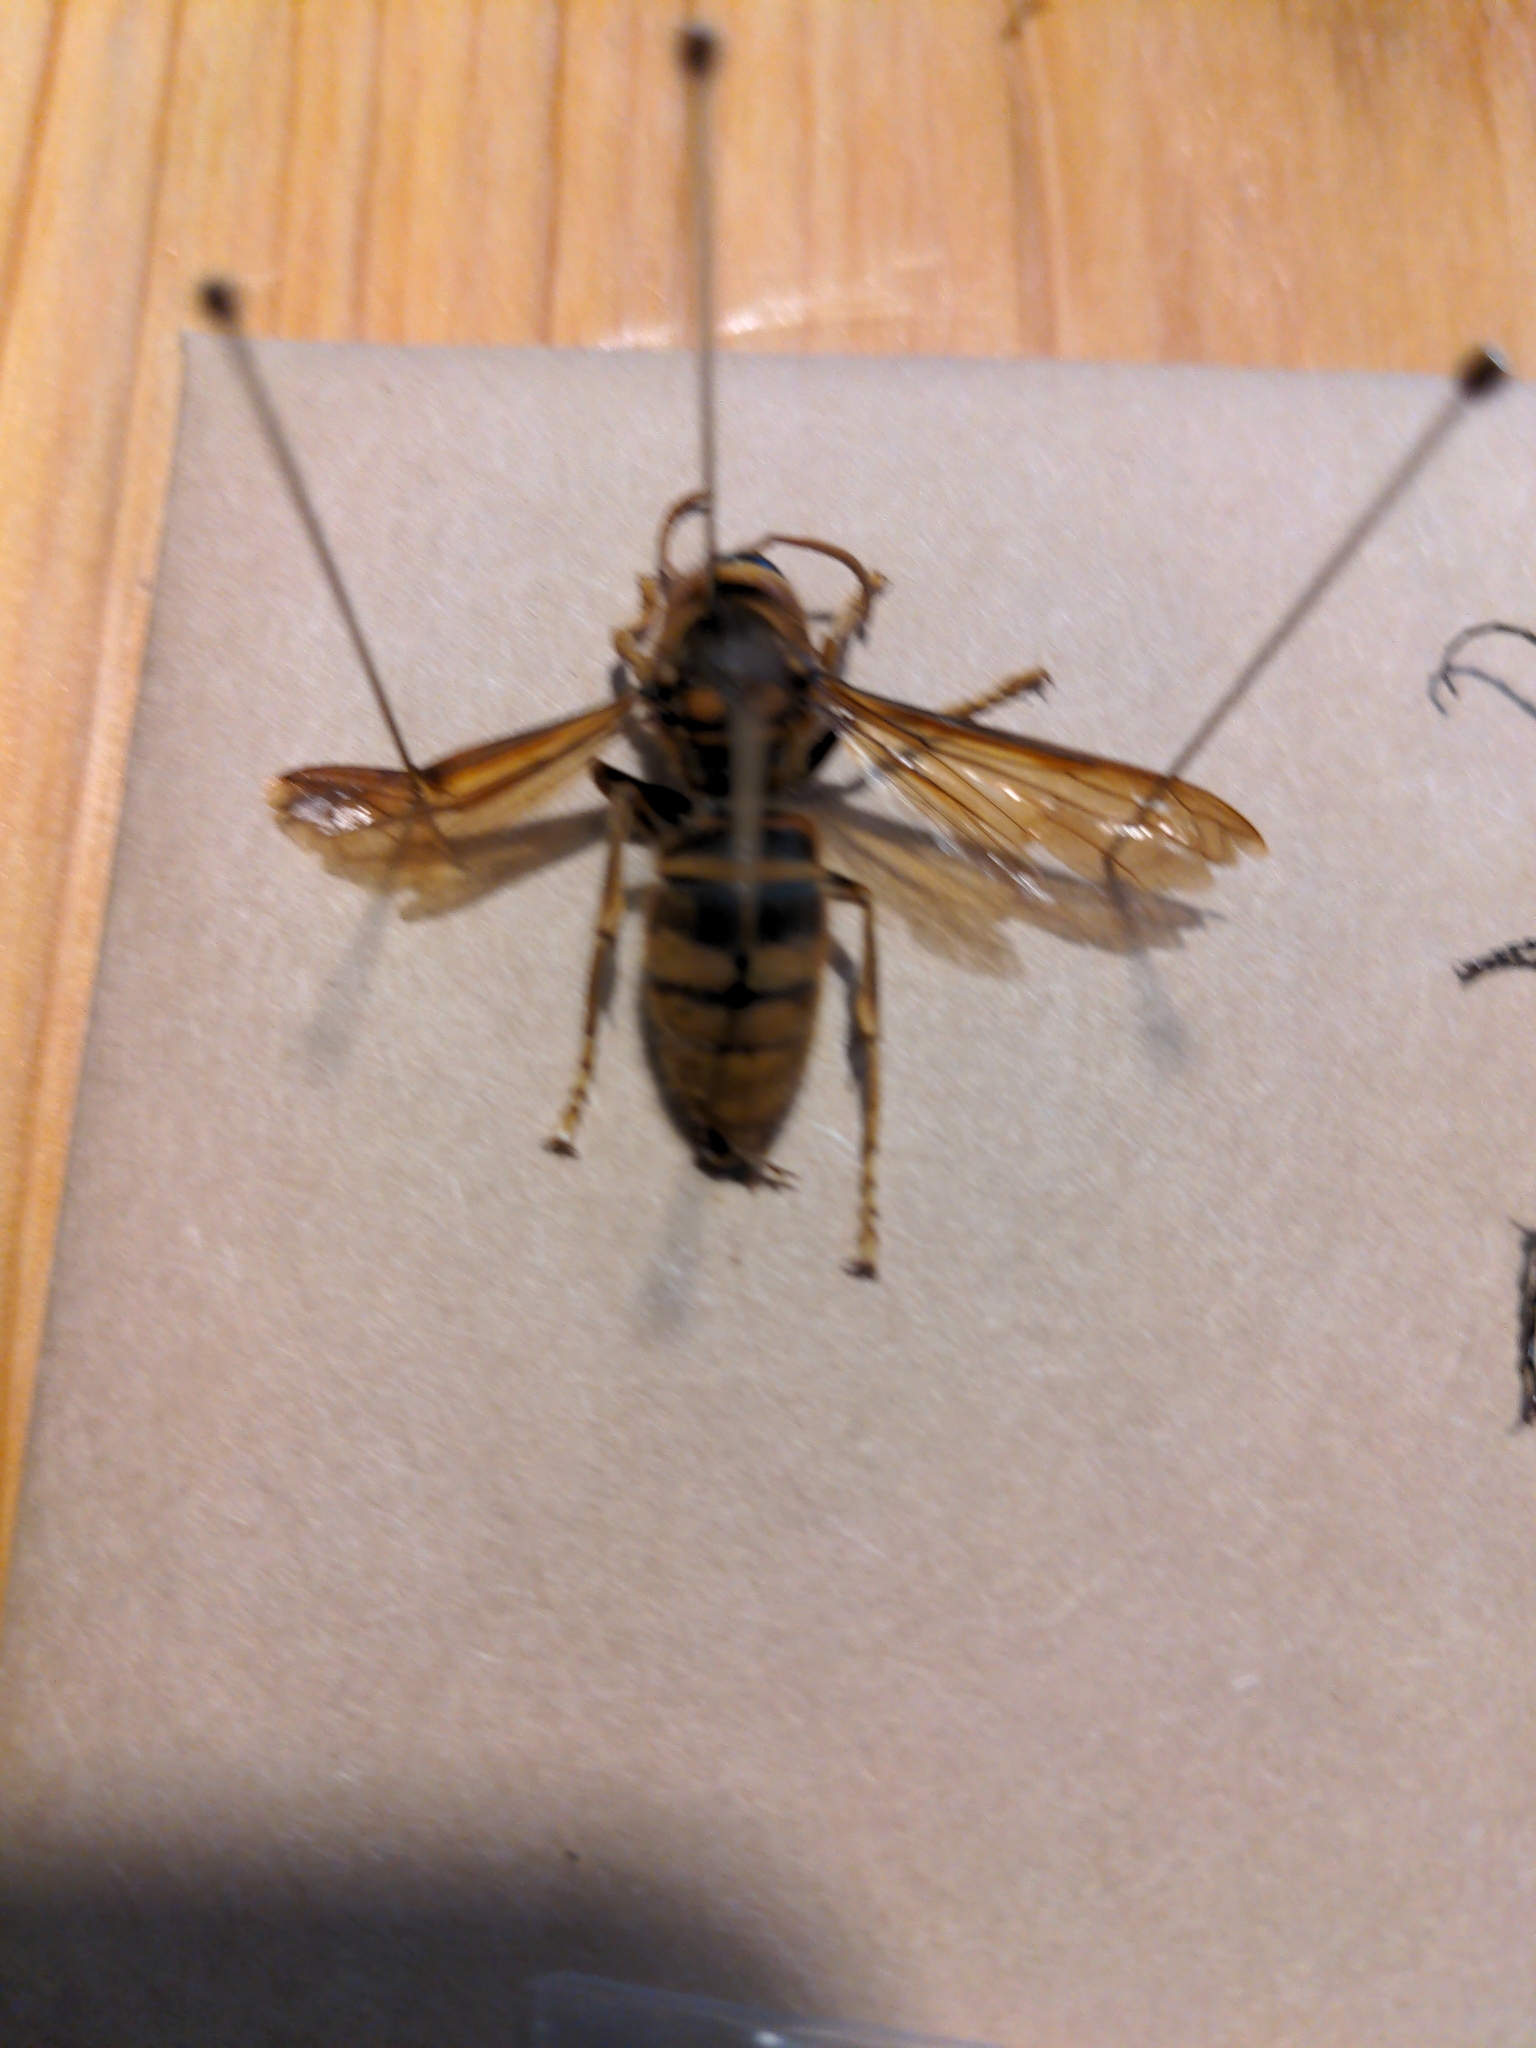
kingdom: Animalia
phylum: Arthropoda
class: Insecta
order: Hymenoptera
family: Vespidae
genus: Vespa
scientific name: Vespa simillima
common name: Vespid wasp
